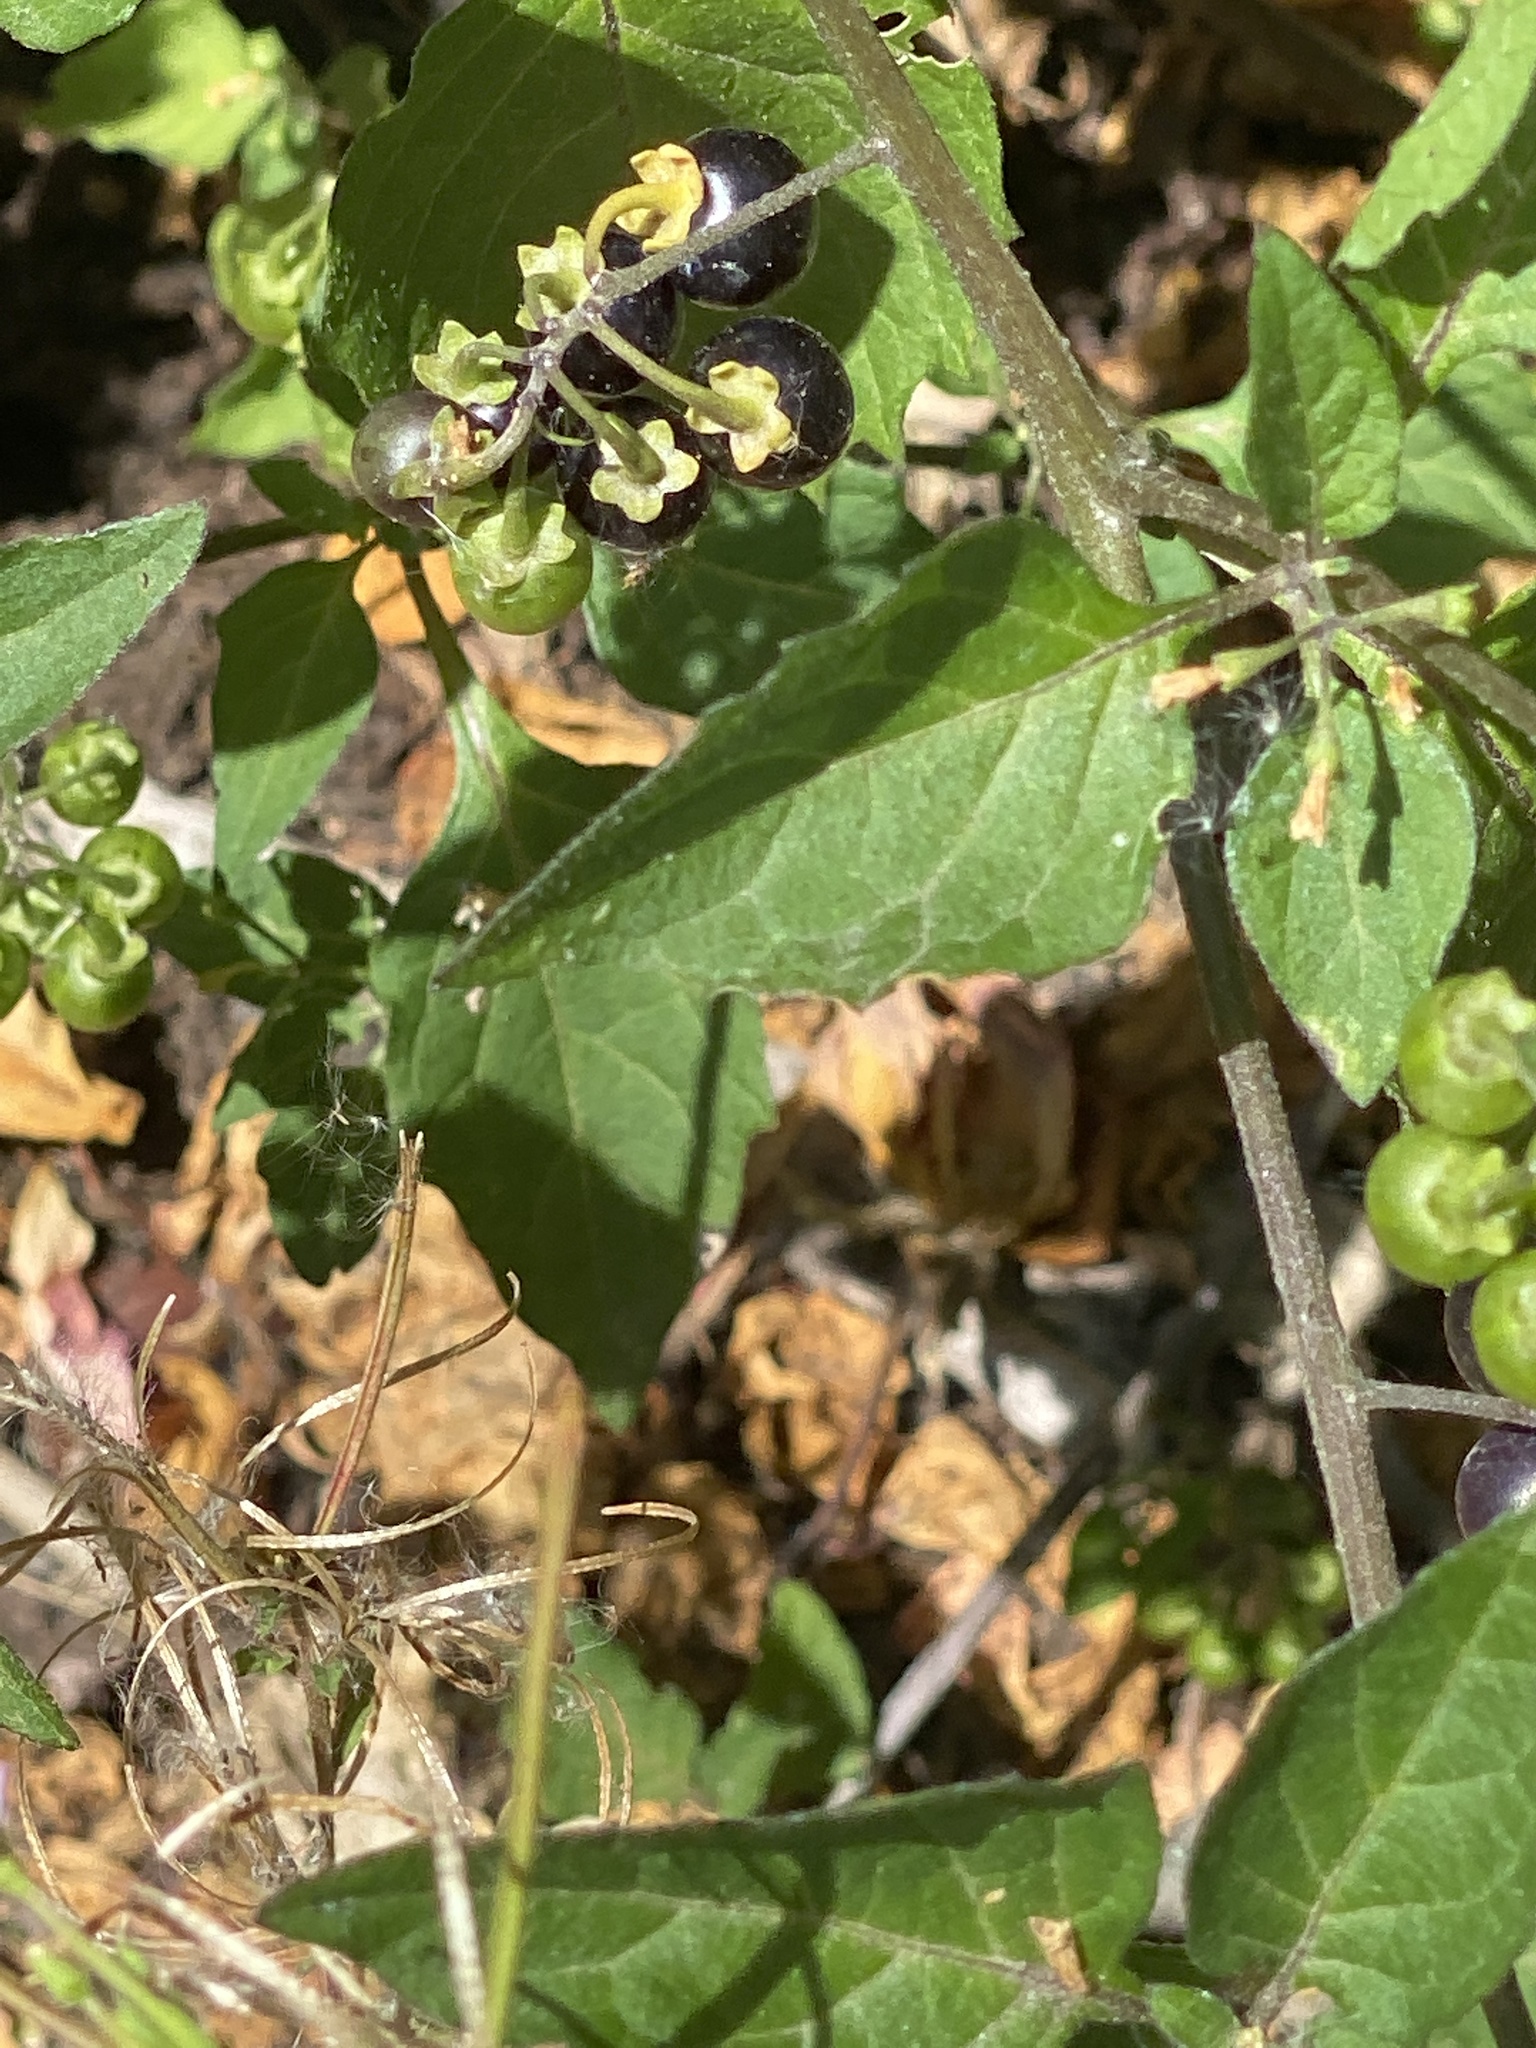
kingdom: Plantae
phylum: Tracheophyta
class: Magnoliopsida
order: Solanales
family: Solanaceae
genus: Solanum
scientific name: Solanum nigrum
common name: Black nightshade
